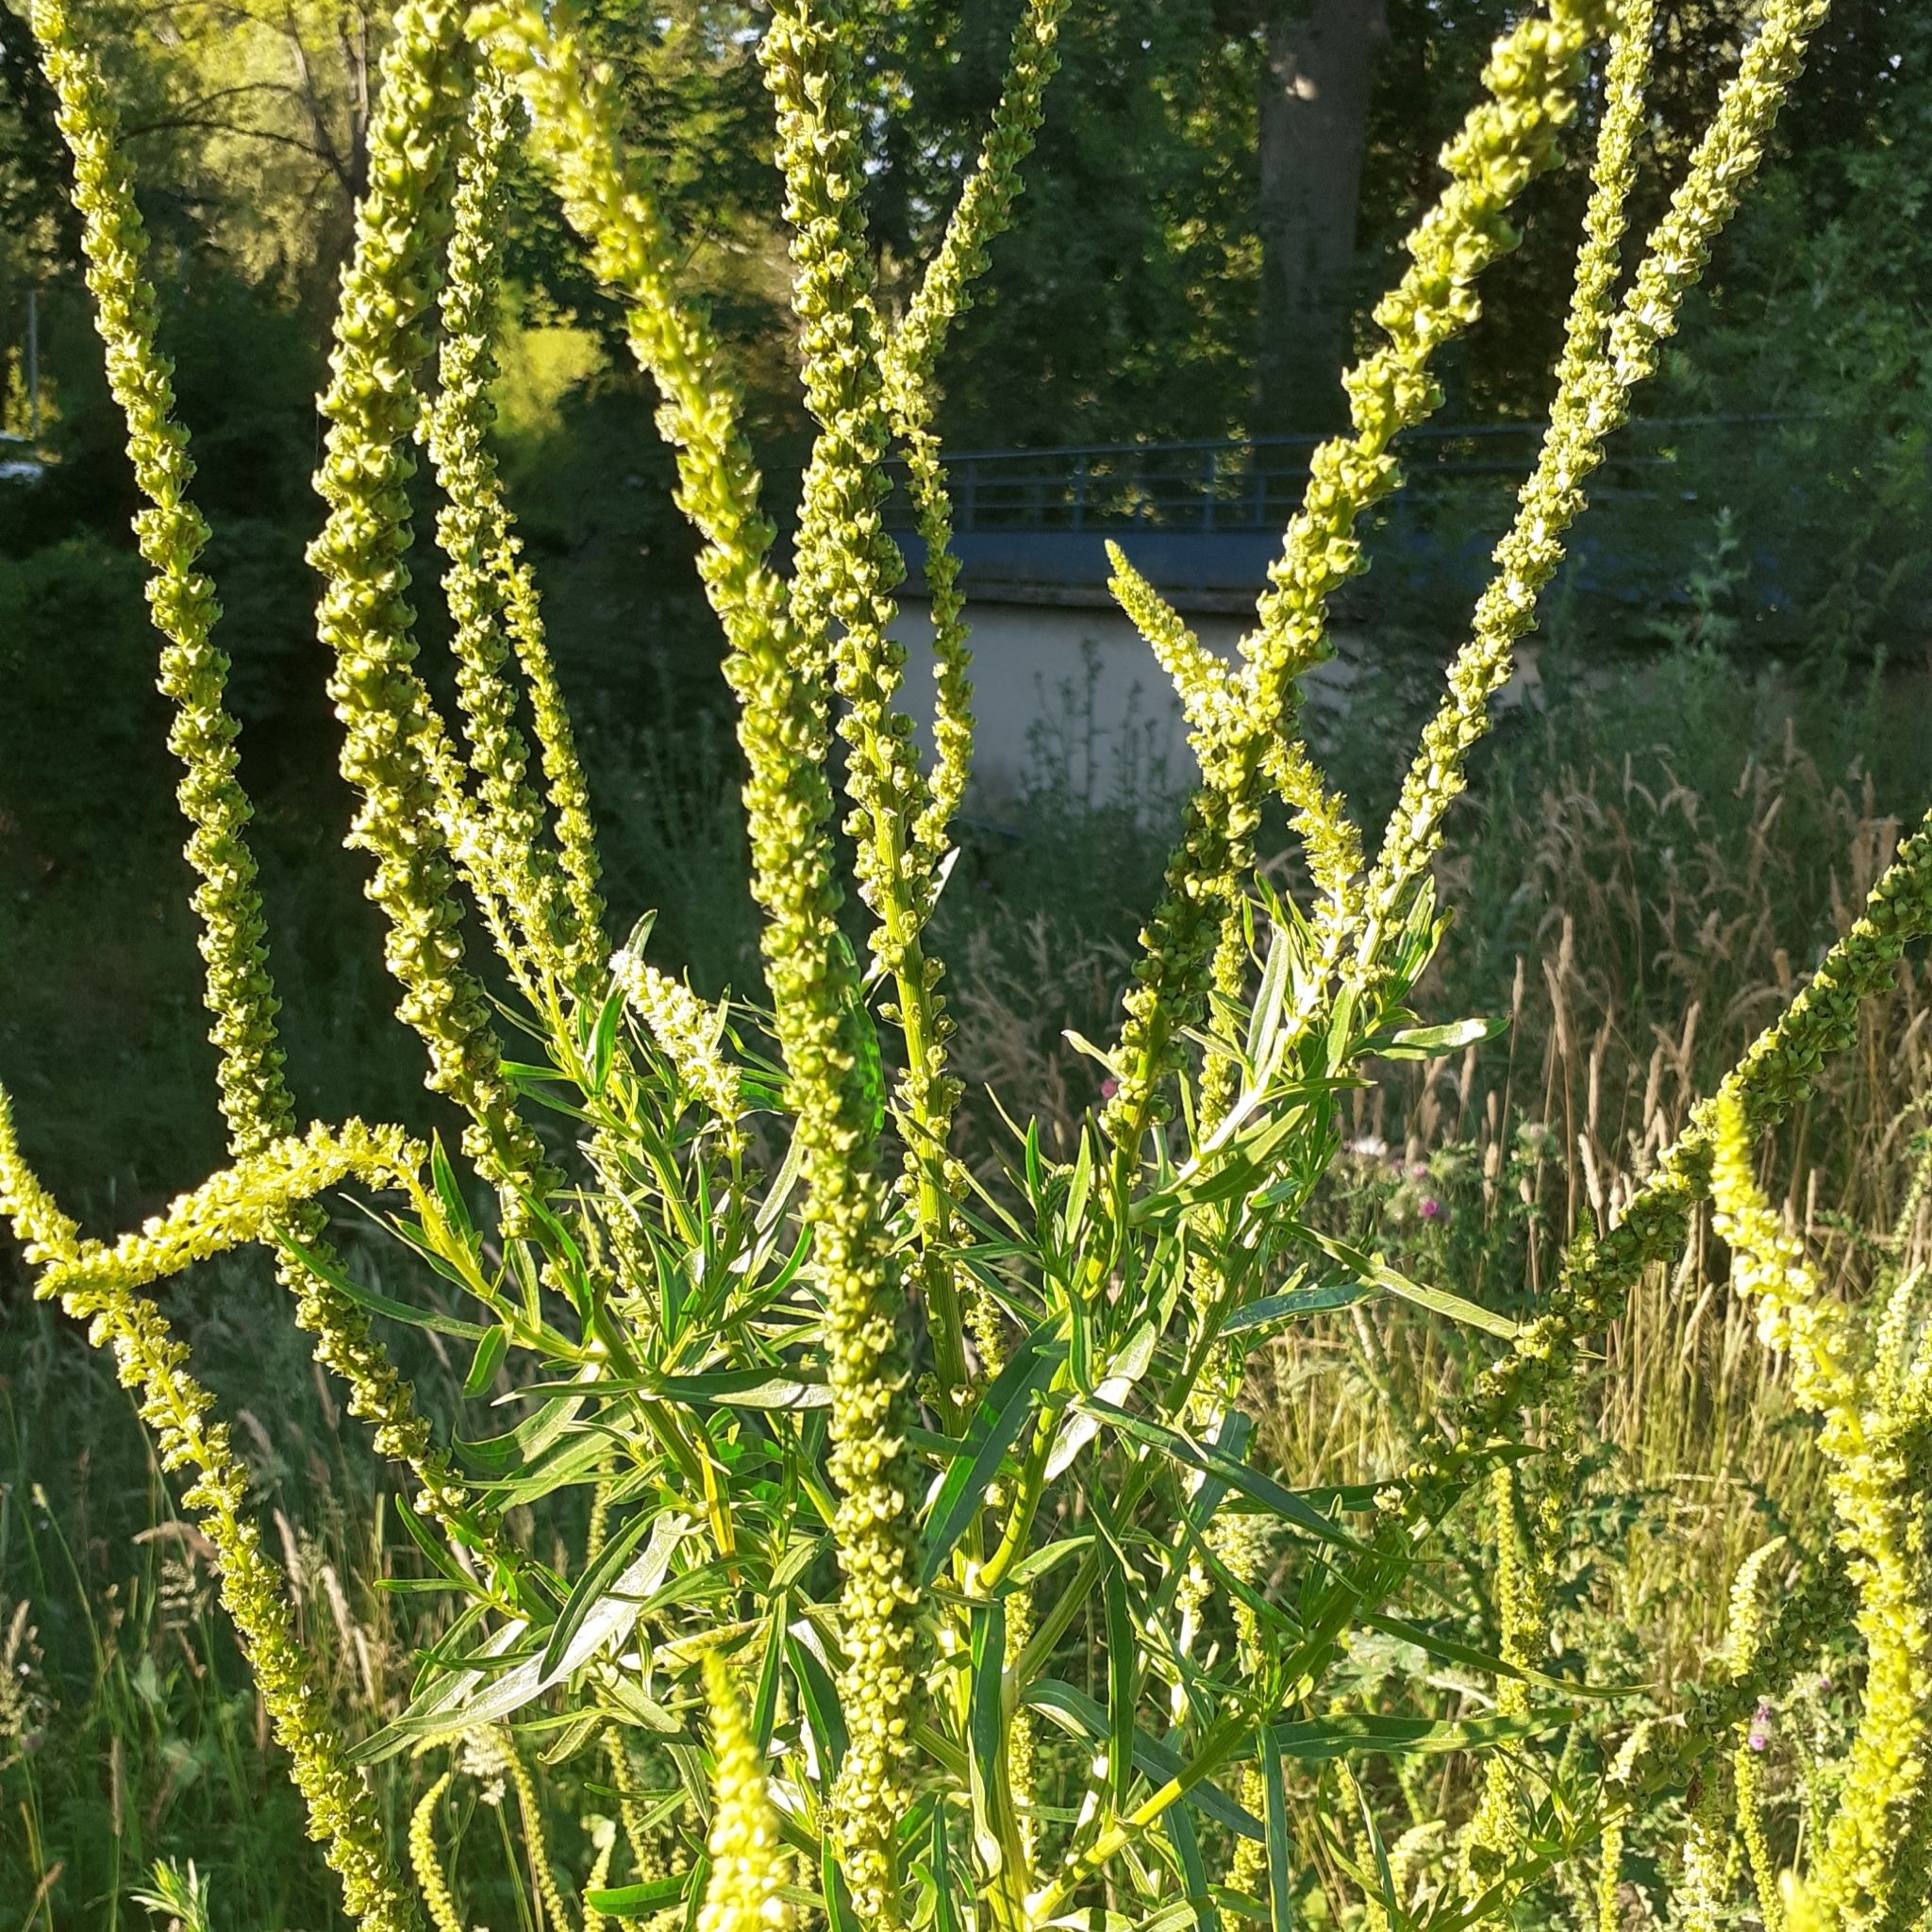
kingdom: Plantae
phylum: Tracheophyta
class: Magnoliopsida
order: Brassicales
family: Resedaceae
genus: Reseda
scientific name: Reseda luteola
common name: Weld
